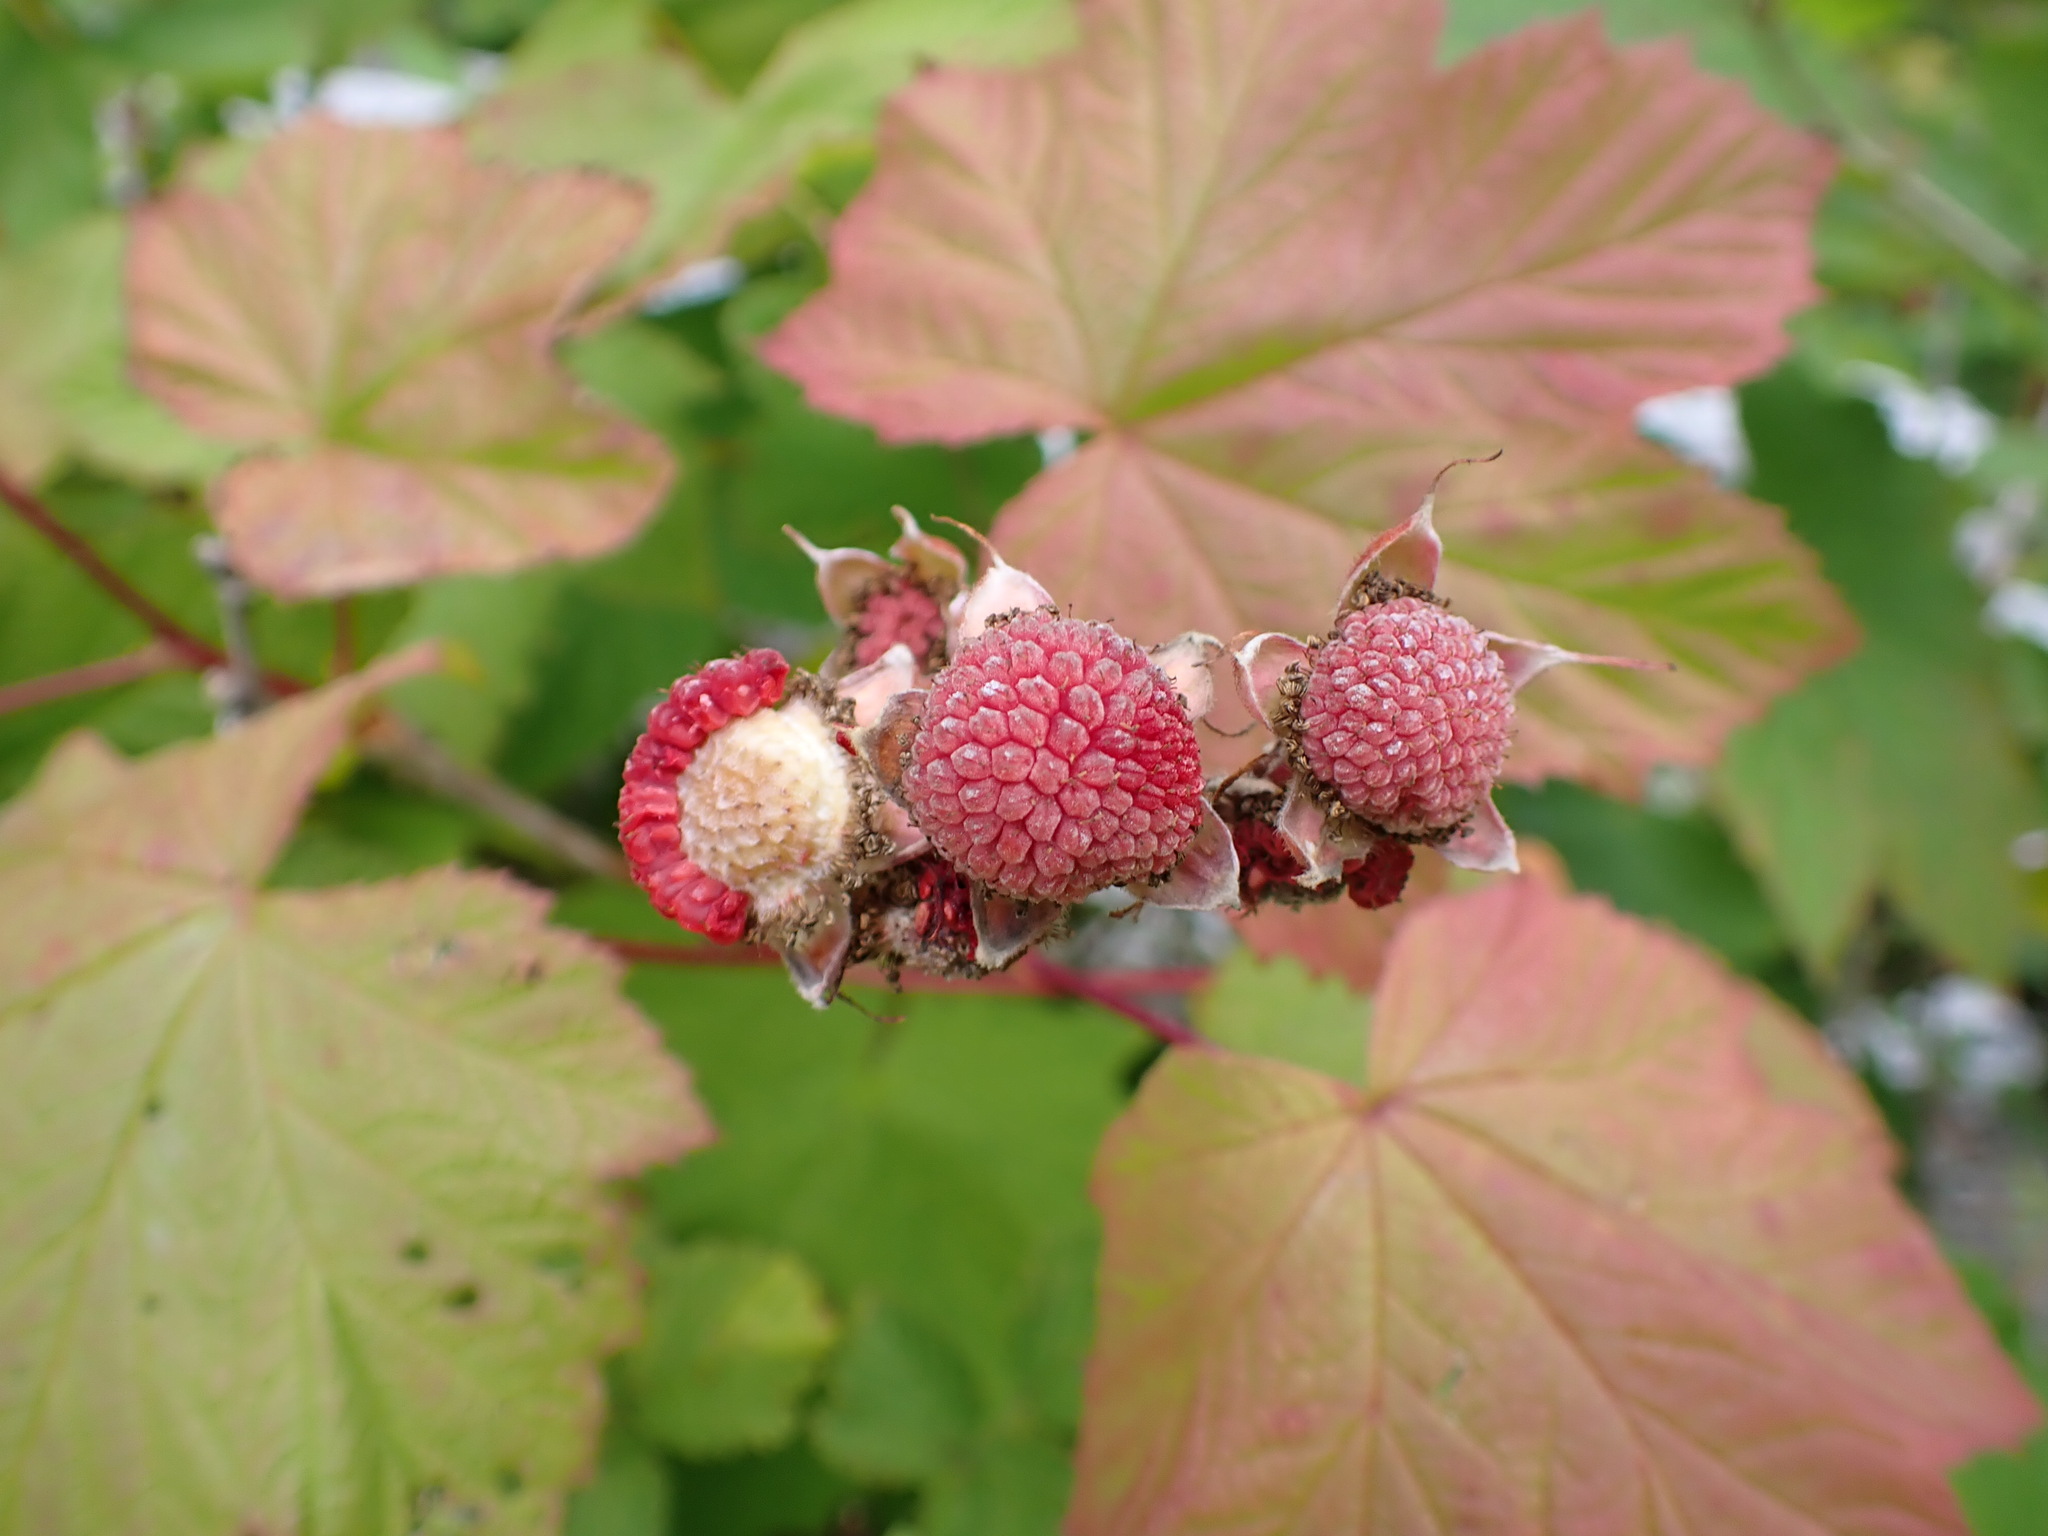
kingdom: Plantae
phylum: Tracheophyta
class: Magnoliopsida
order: Rosales
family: Rosaceae
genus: Rubus
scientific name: Rubus parviflorus
